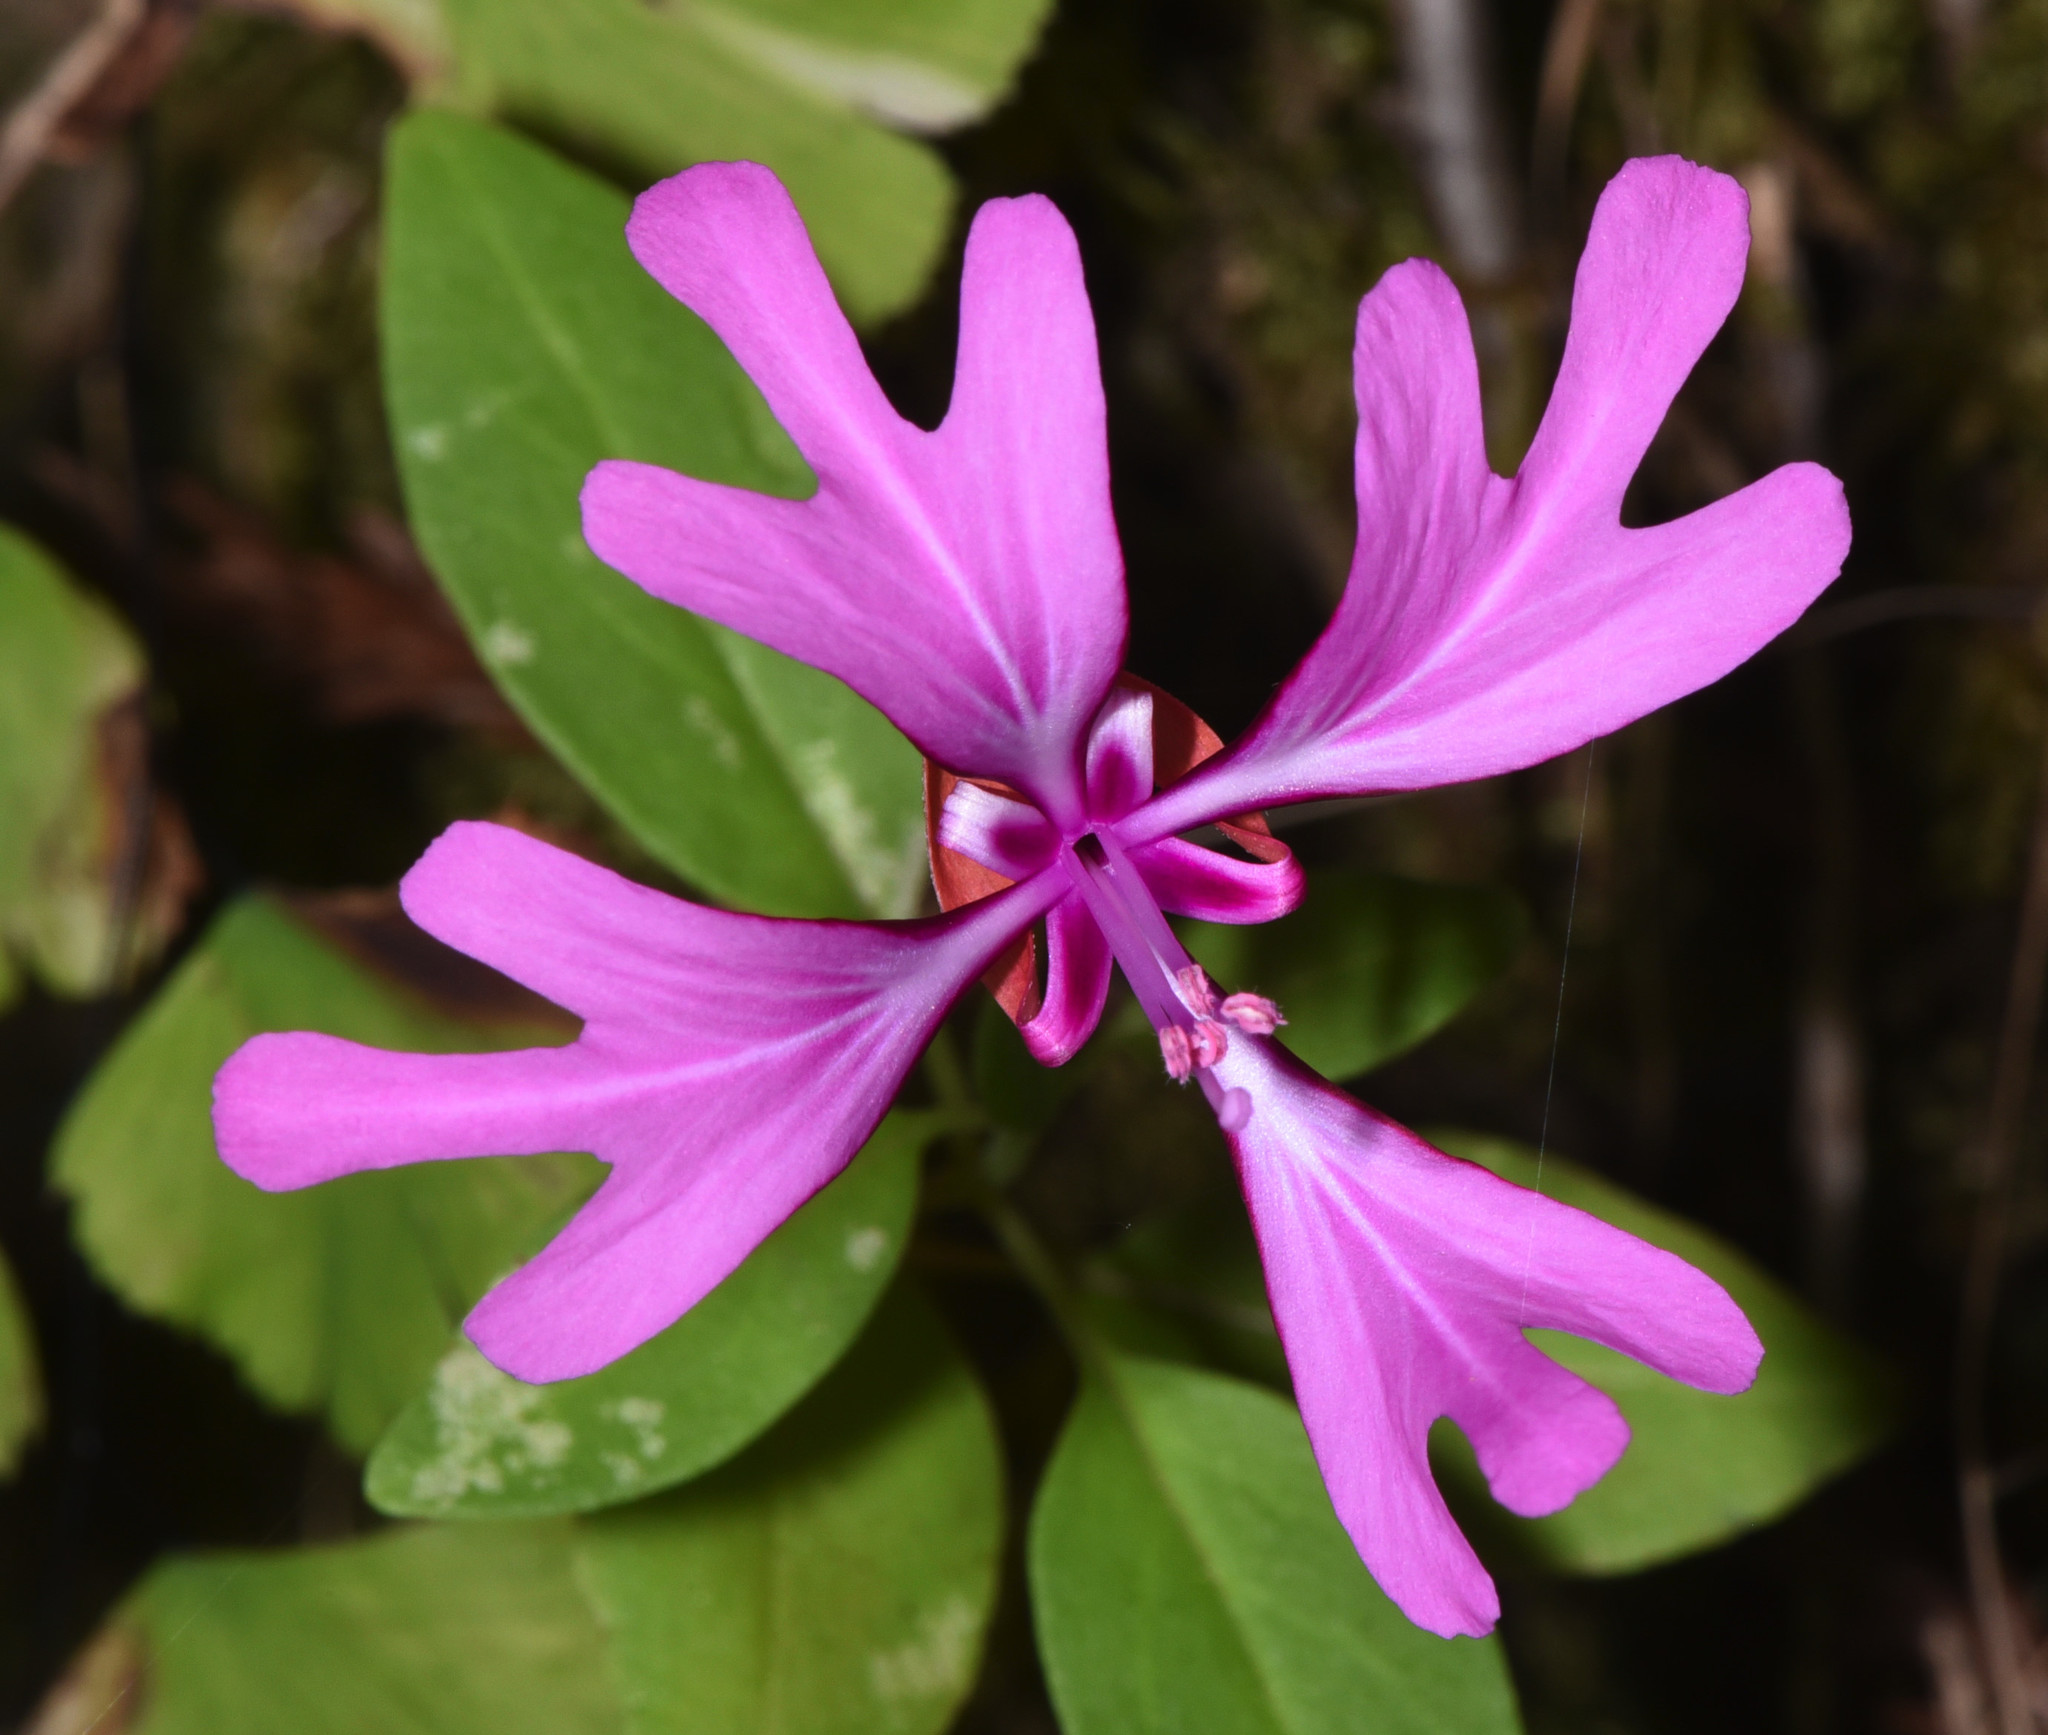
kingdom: Plantae
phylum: Tracheophyta
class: Magnoliopsida
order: Myrtales
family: Onagraceae
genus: Clarkia
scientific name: Clarkia concinna
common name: Red-ribbons
